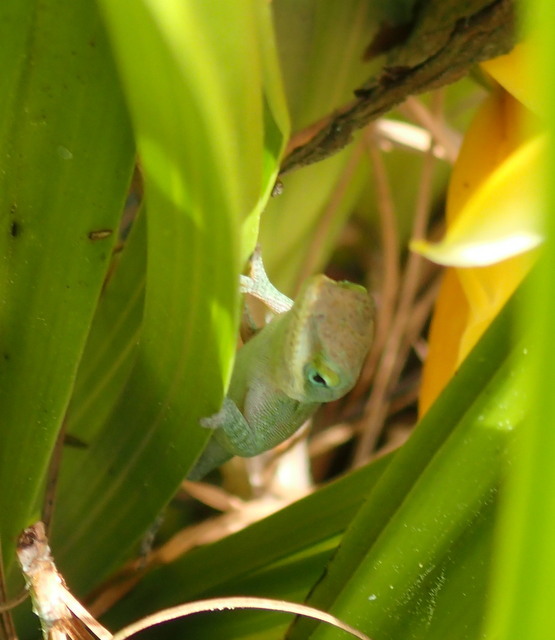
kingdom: Animalia
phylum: Chordata
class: Squamata
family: Dactyloidae
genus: Anolis
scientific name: Anolis carolinensis
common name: Green anole
